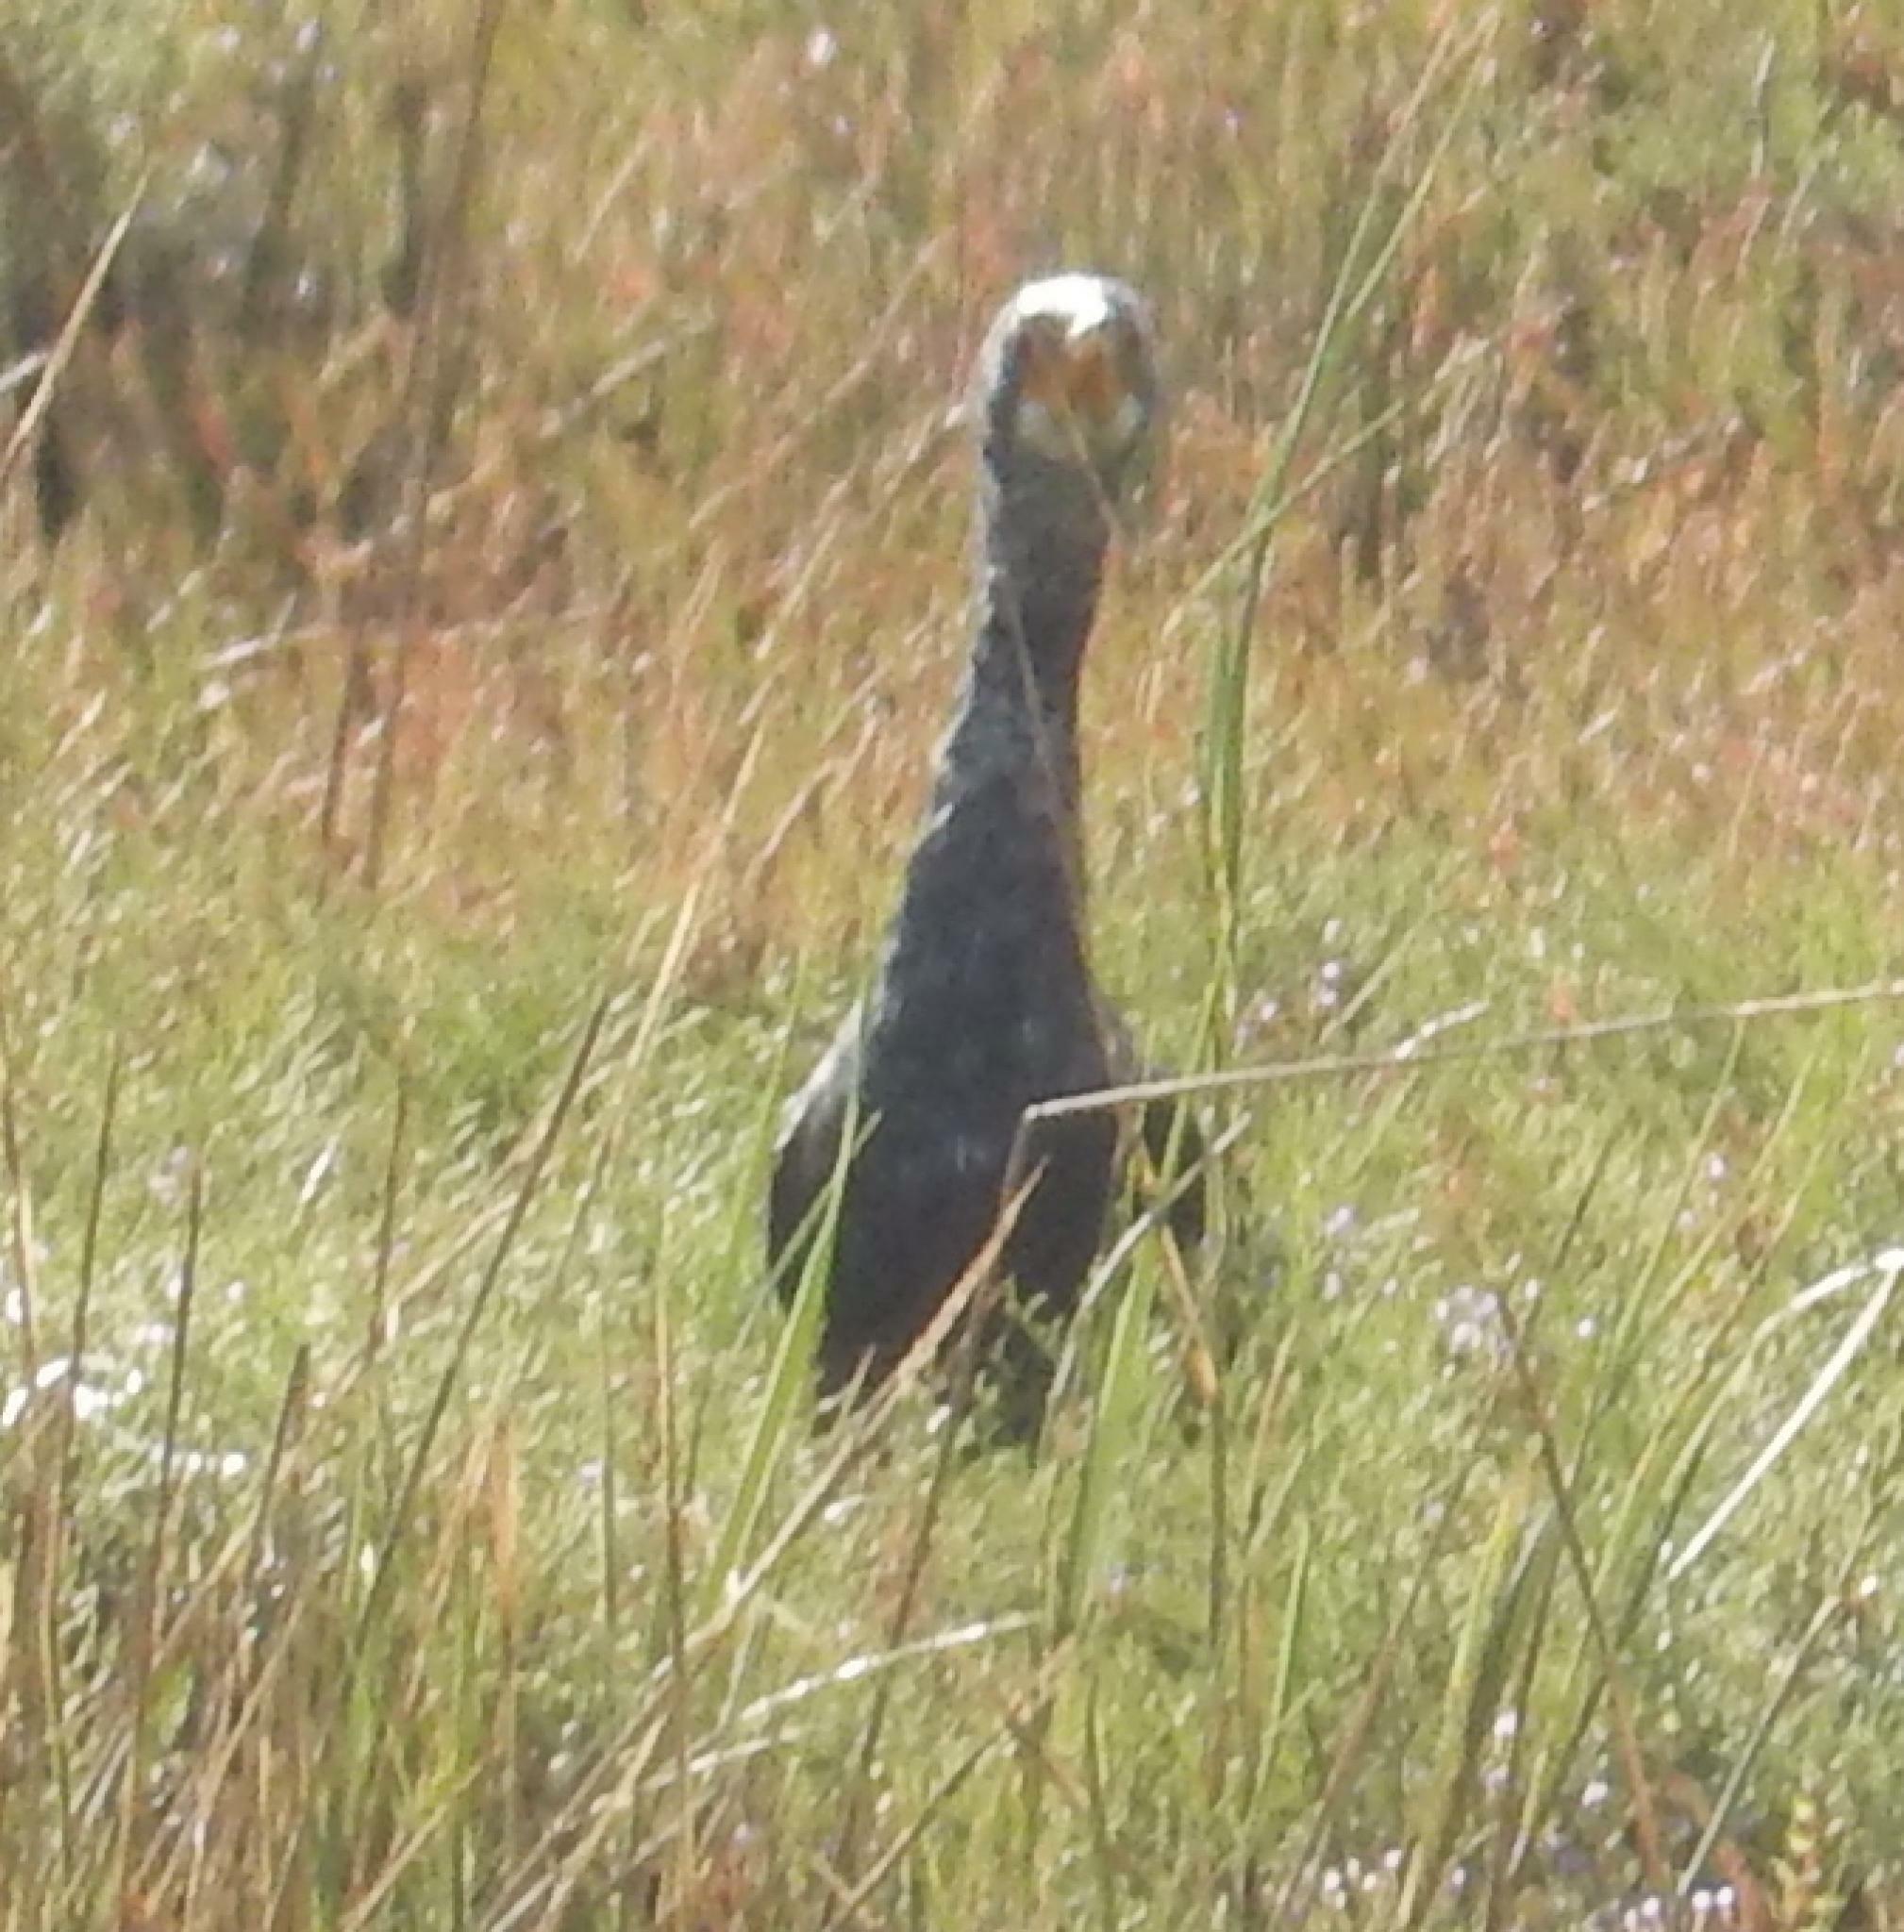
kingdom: Animalia
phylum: Chordata
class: Aves
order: Suliformes
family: Phalacrocoracidae
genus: Phalacrocorax
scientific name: Phalacrocorax capensis
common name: Cape cormorant
